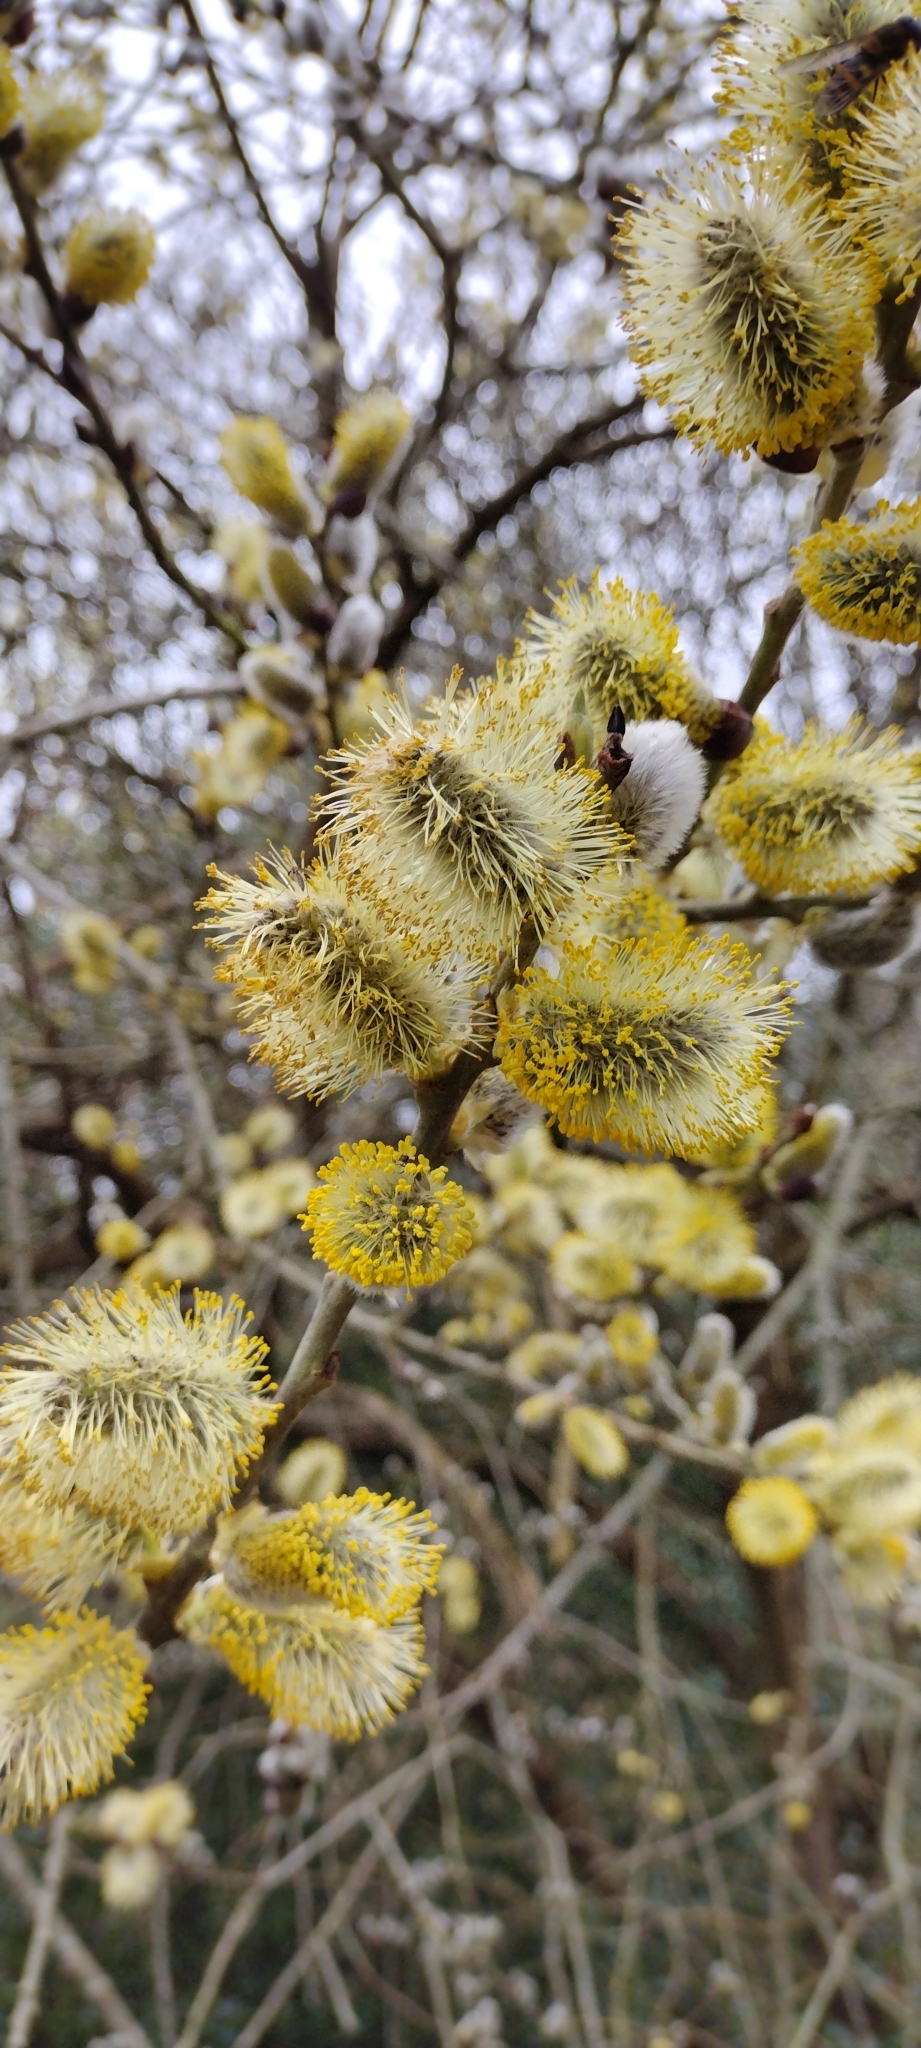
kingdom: Plantae
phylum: Tracheophyta
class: Magnoliopsida
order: Malpighiales
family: Salicaceae
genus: Salix
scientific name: Salix caprea
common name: Goat willow
